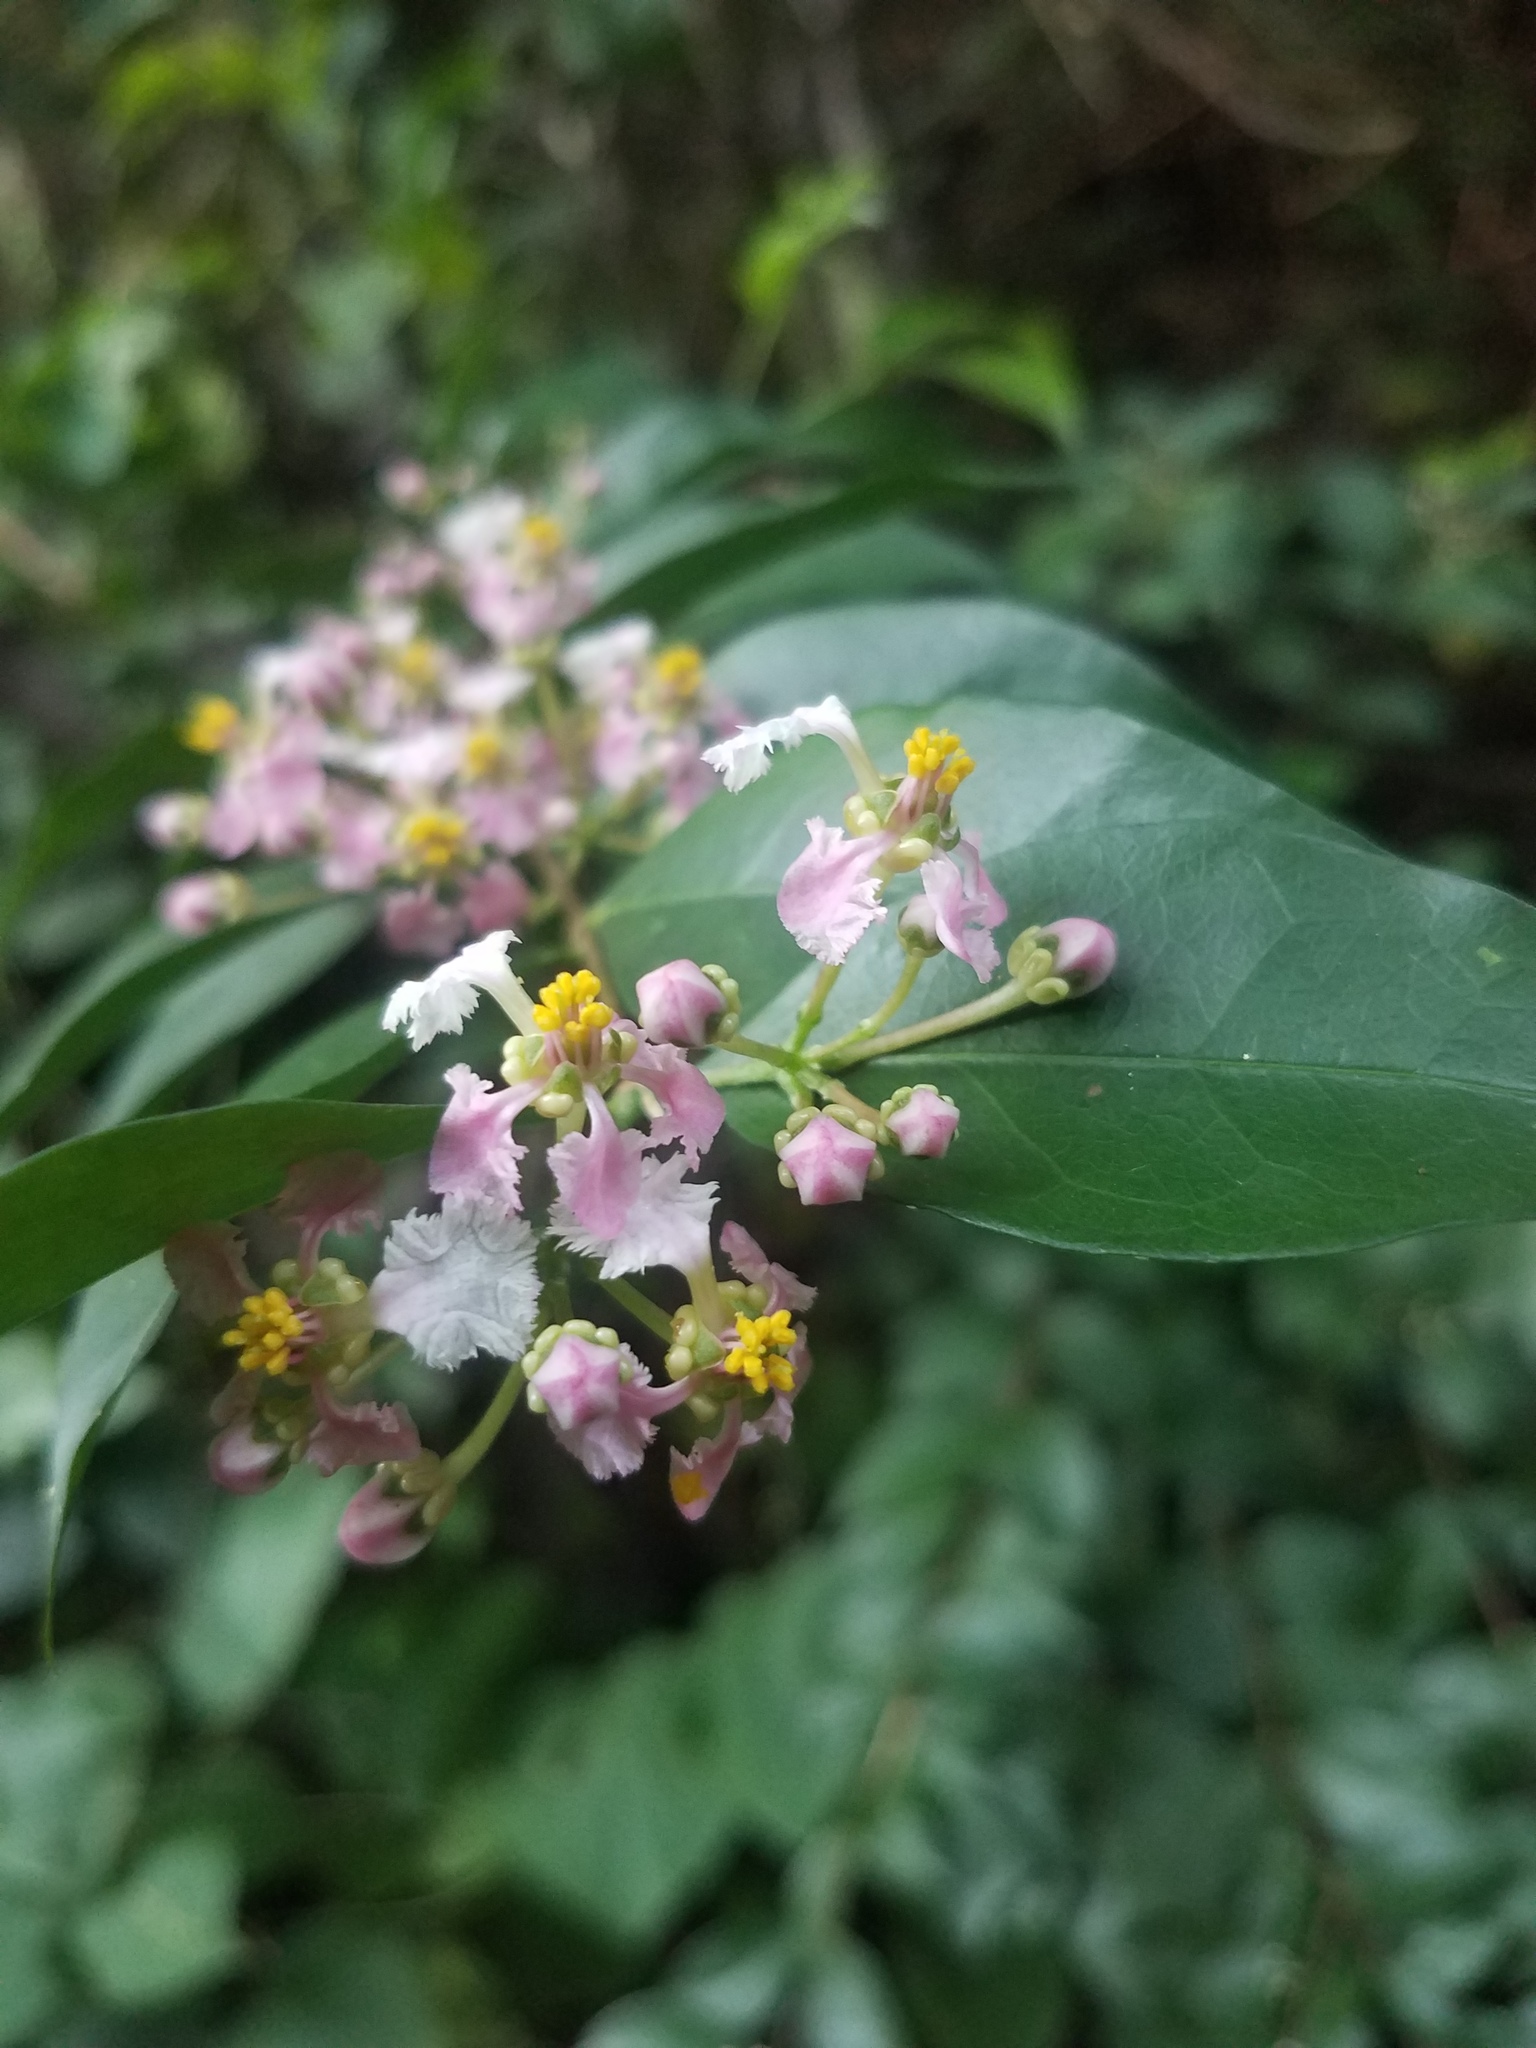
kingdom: Plantae
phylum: Tracheophyta
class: Magnoliopsida
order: Malpighiales
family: Malpighiaceae
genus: Malpighia
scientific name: Malpighia glabra
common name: Barbados cherry
